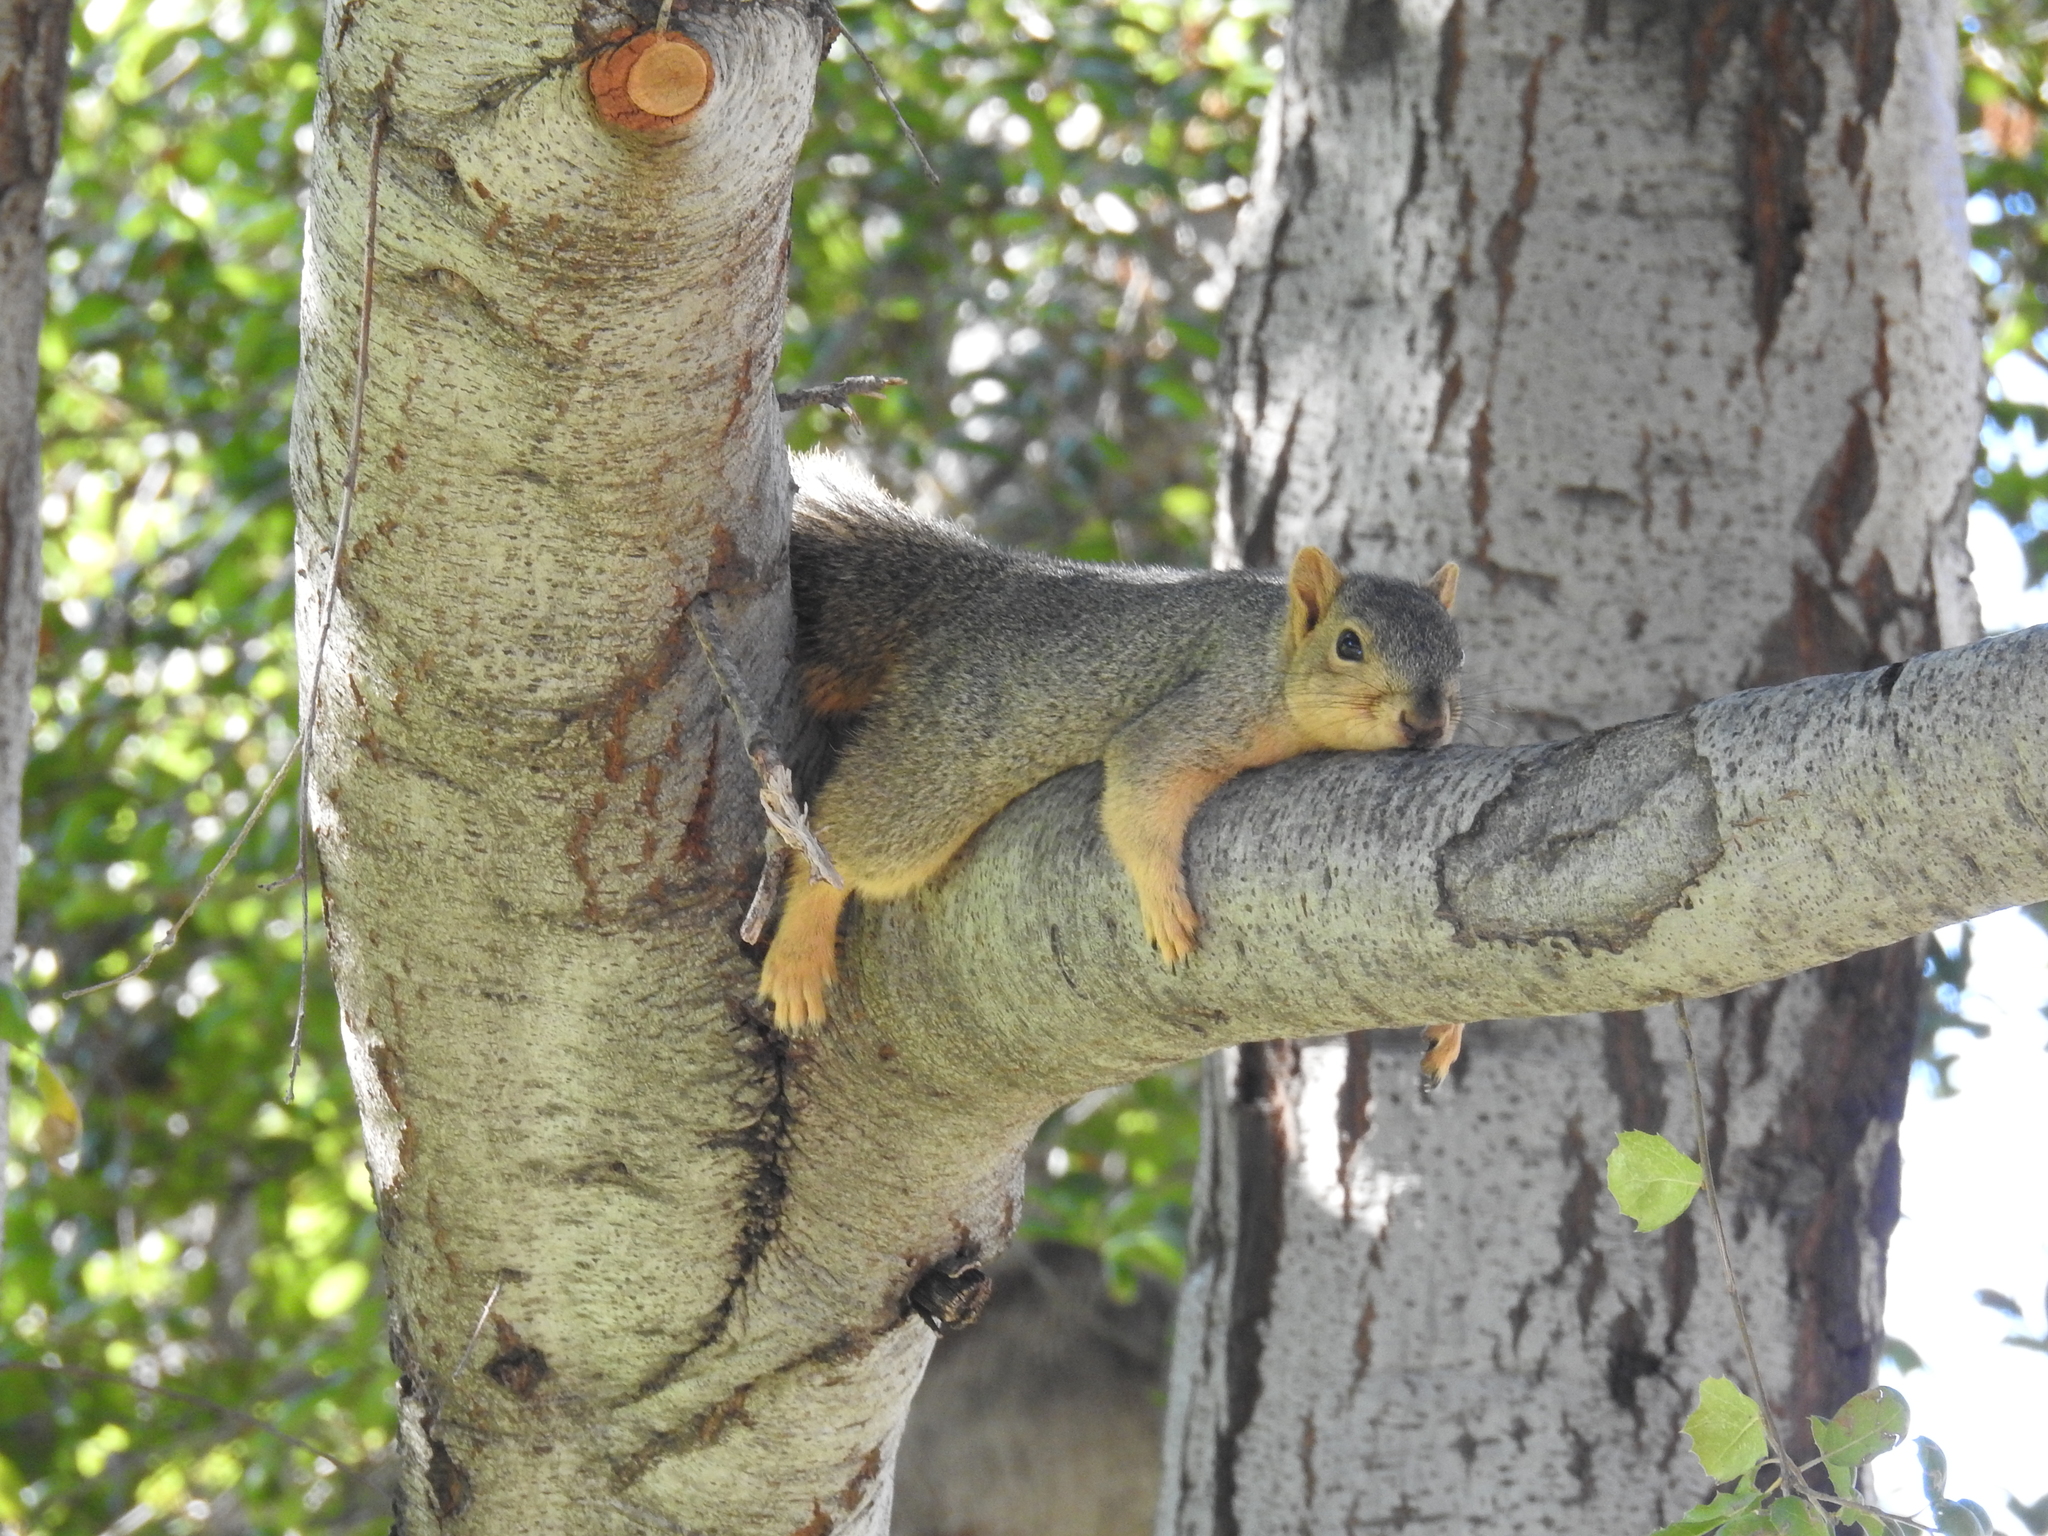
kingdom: Animalia
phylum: Chordata
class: Mammalia
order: Rodentia
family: Sciuridae
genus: Sciurus
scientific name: Sciurus niger
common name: Fox squirrel
